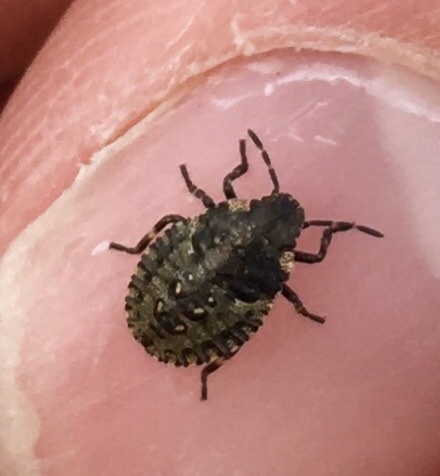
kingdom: Animalia
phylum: Arthropoda
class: Insecta
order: Hemiptera
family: Pentatomidae
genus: Pentatoma
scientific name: Pentatoma rufipes
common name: Forest bug
